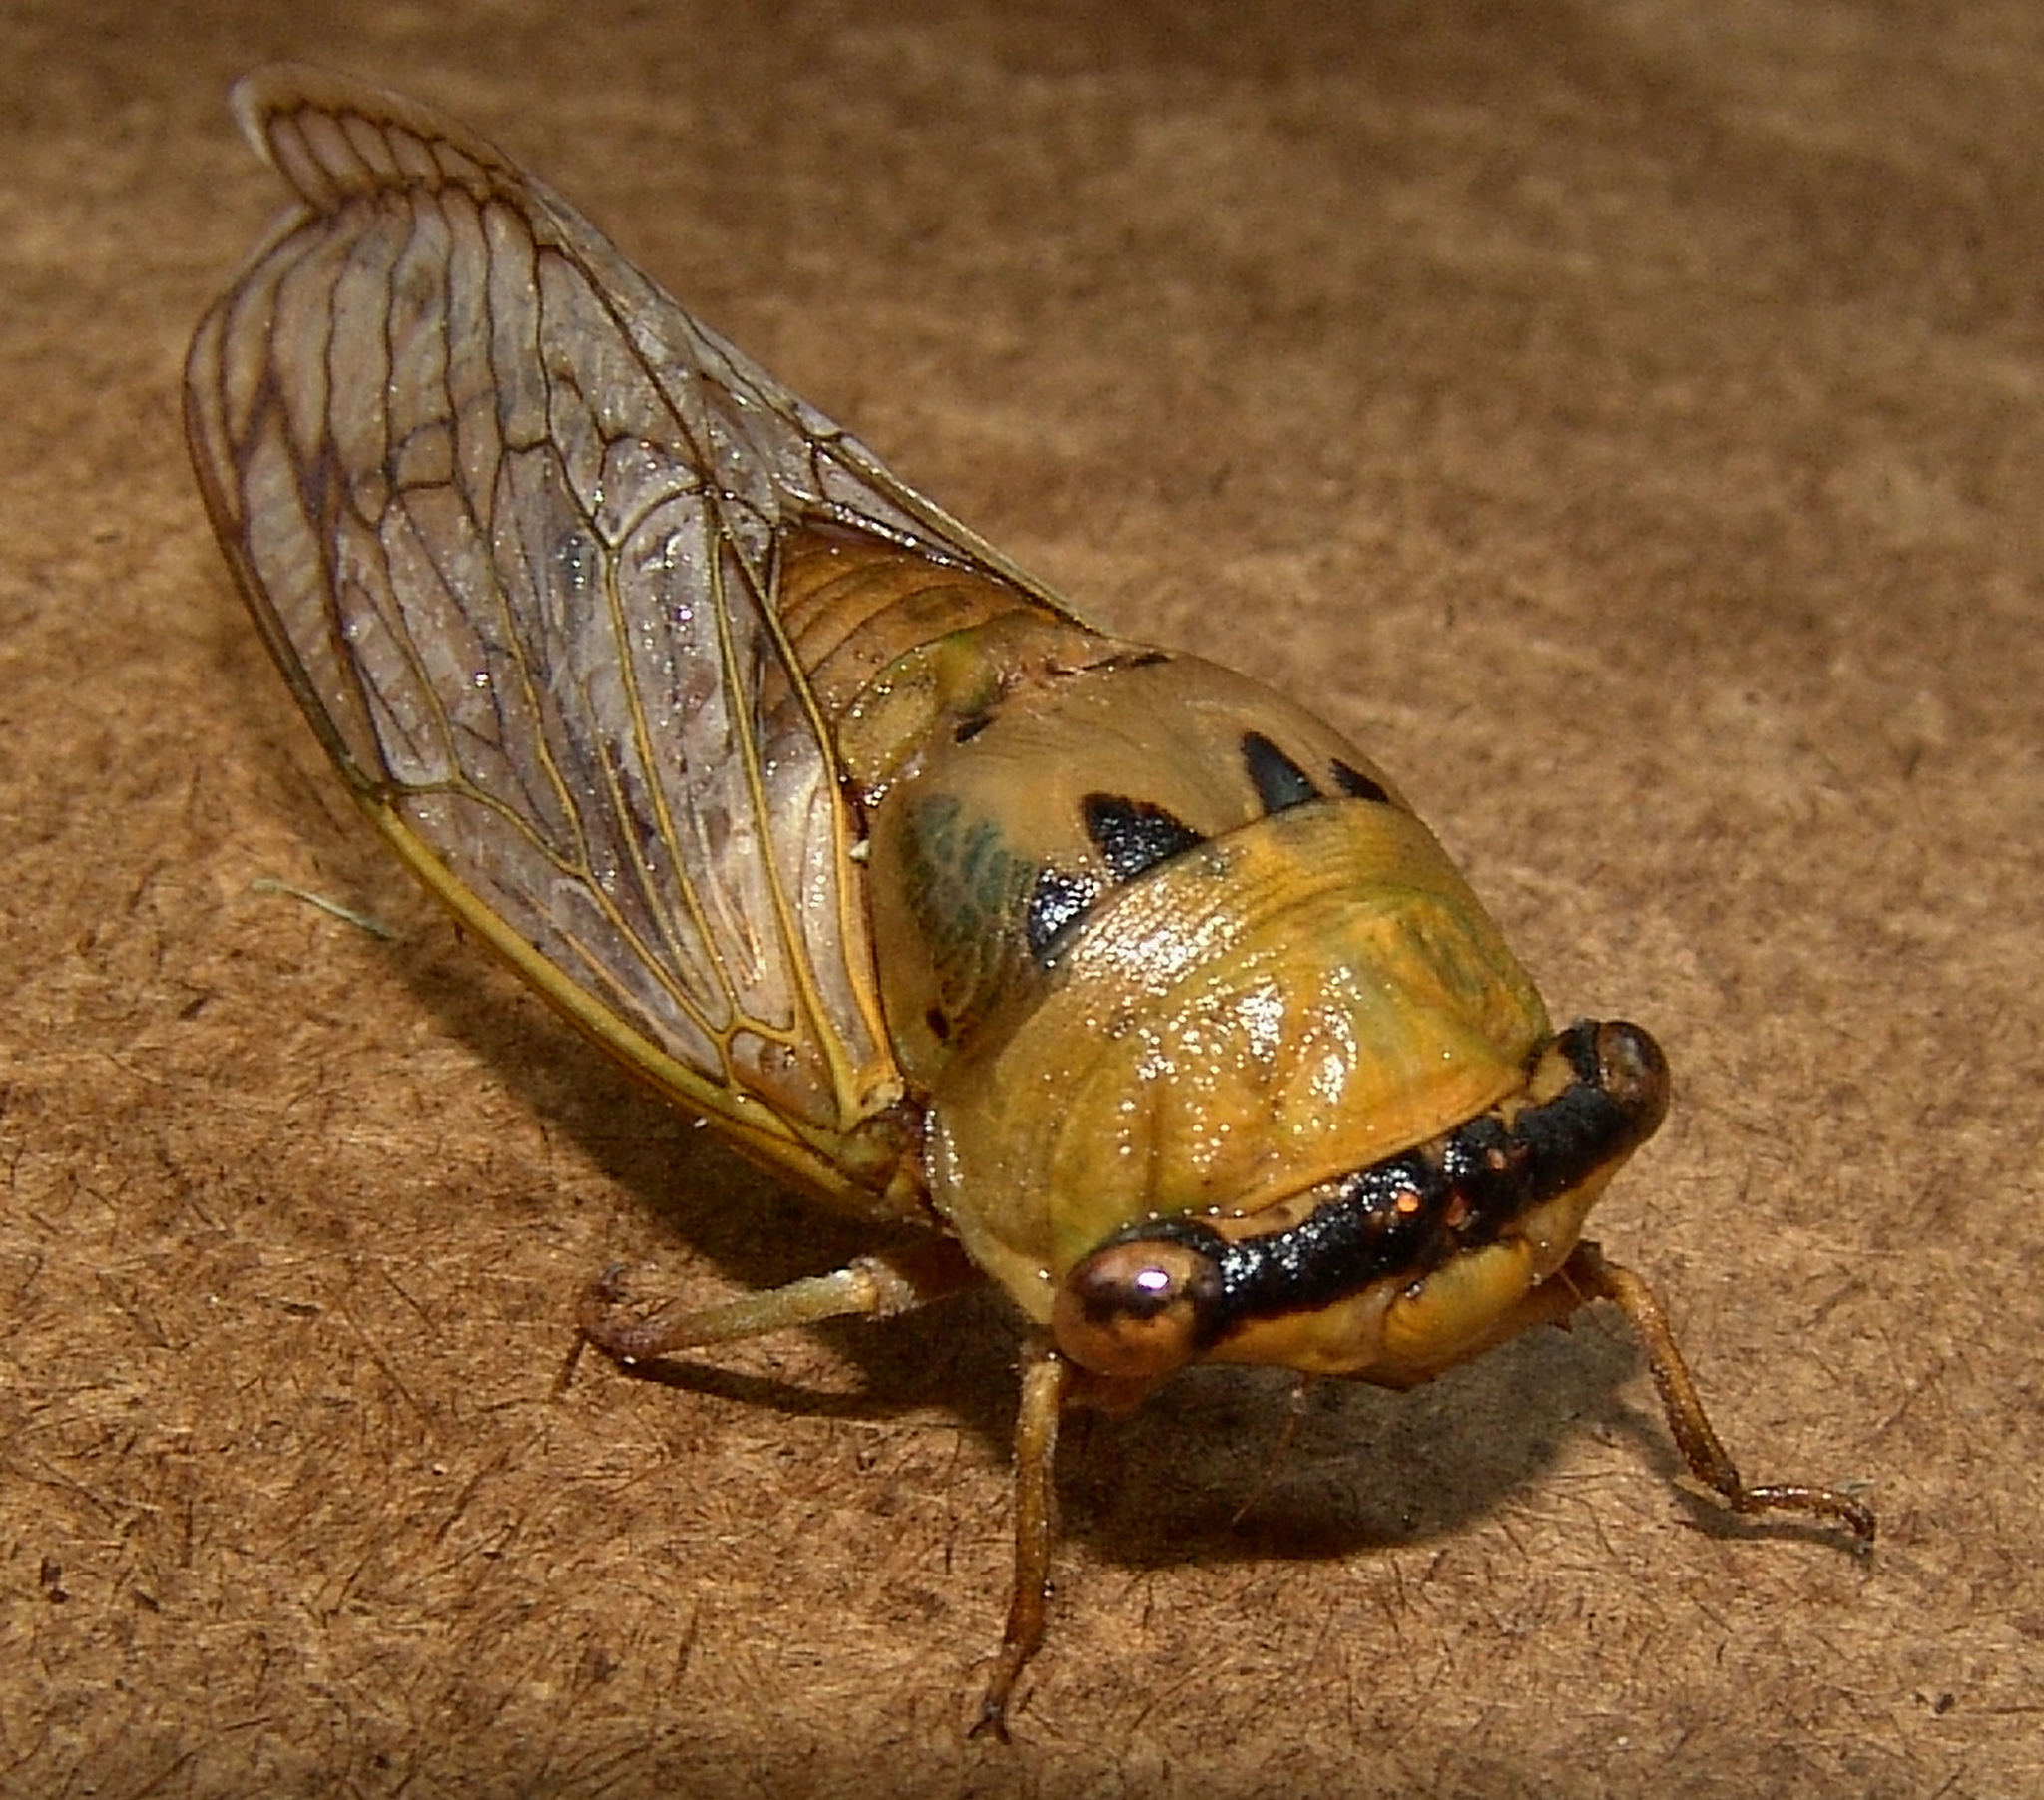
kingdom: Animalia
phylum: Arthropoda
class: Insecta
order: Hemiptera
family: Cicadidae
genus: Neotibicen
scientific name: Neotibicen superbus
